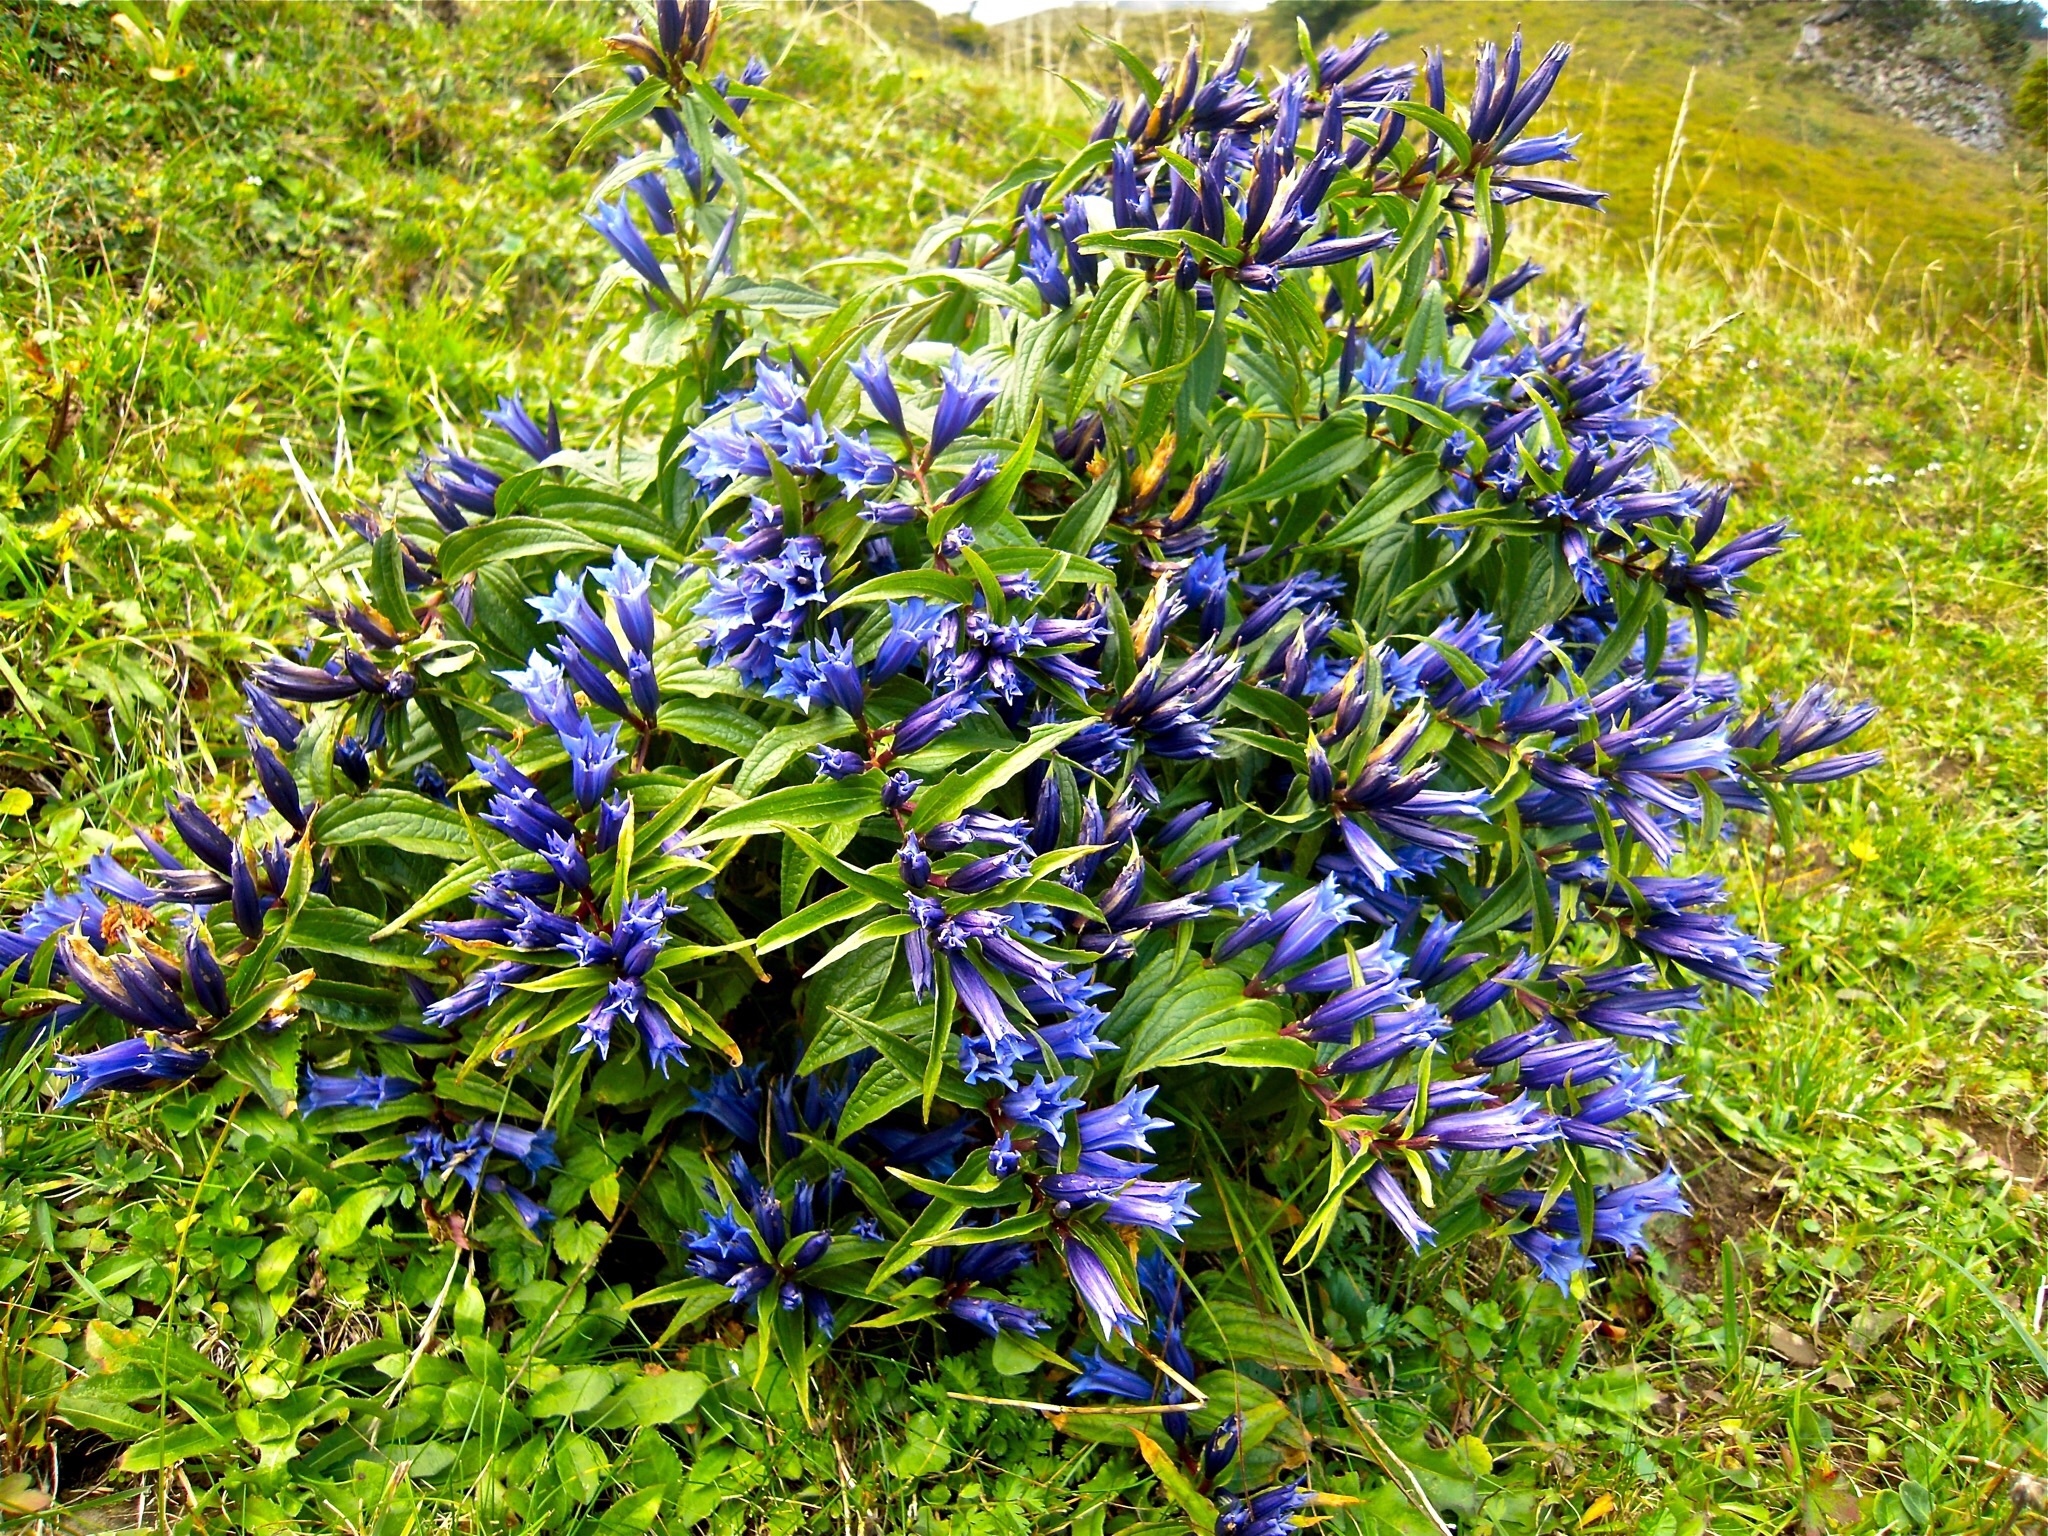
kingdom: Plantae
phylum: Tracheophyta
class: Magnoliopsida
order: Gentianales
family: Gentianaceae
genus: Gentiana
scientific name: Gentiana asclepiadea
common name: Willow gentian
